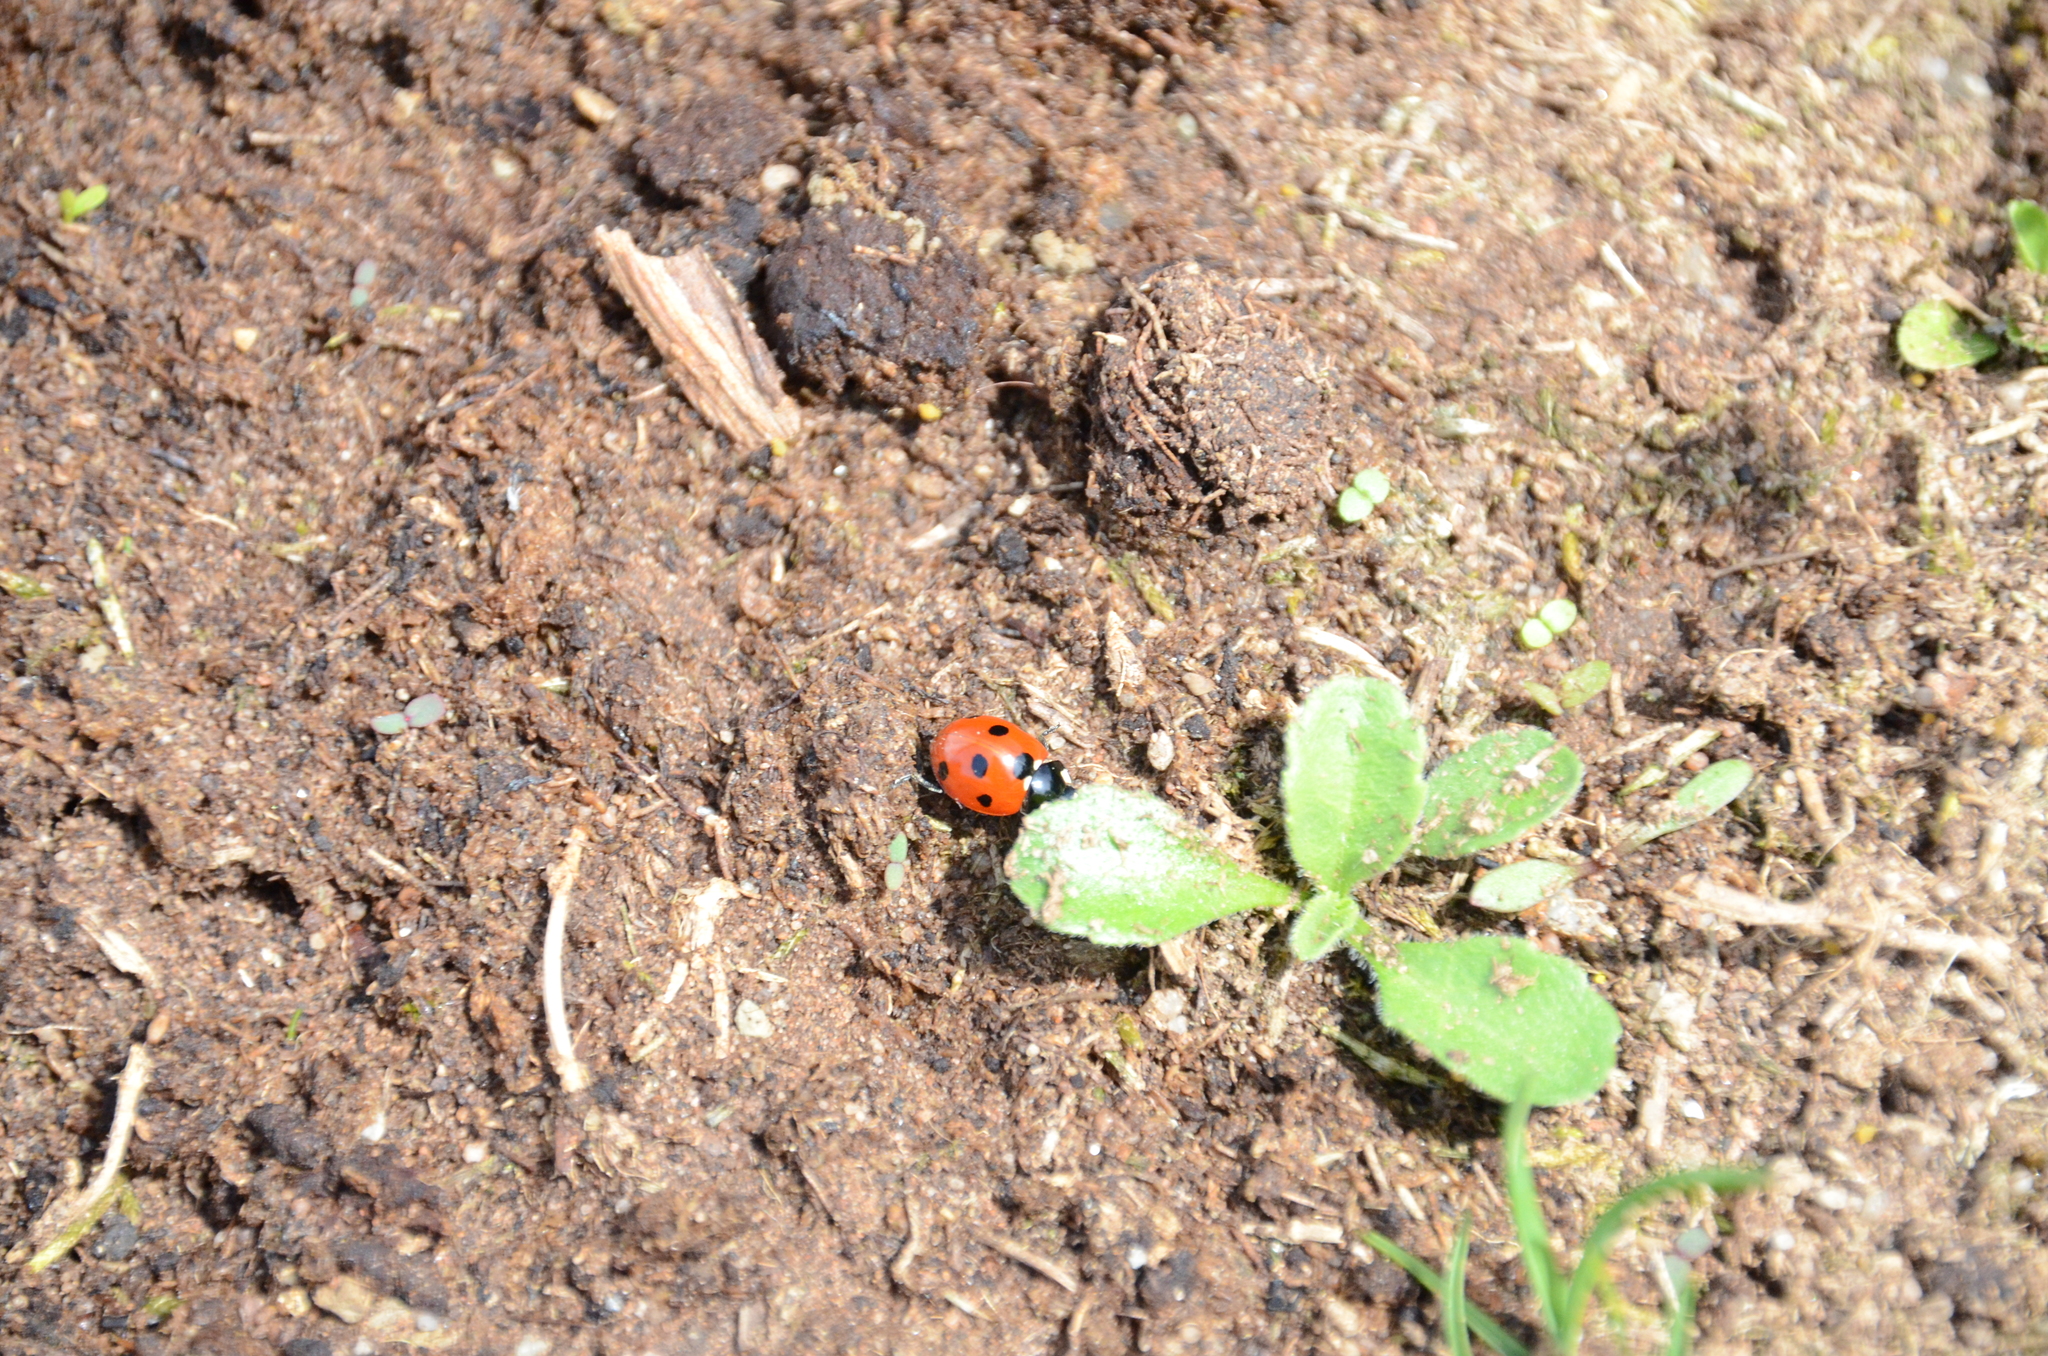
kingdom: Animalia
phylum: Arthropoda
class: Insecta
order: Coleoptera
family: Coccinellidae
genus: Coccinella
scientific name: Coccinella septempunctata
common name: Sevenspotted lady beetle
